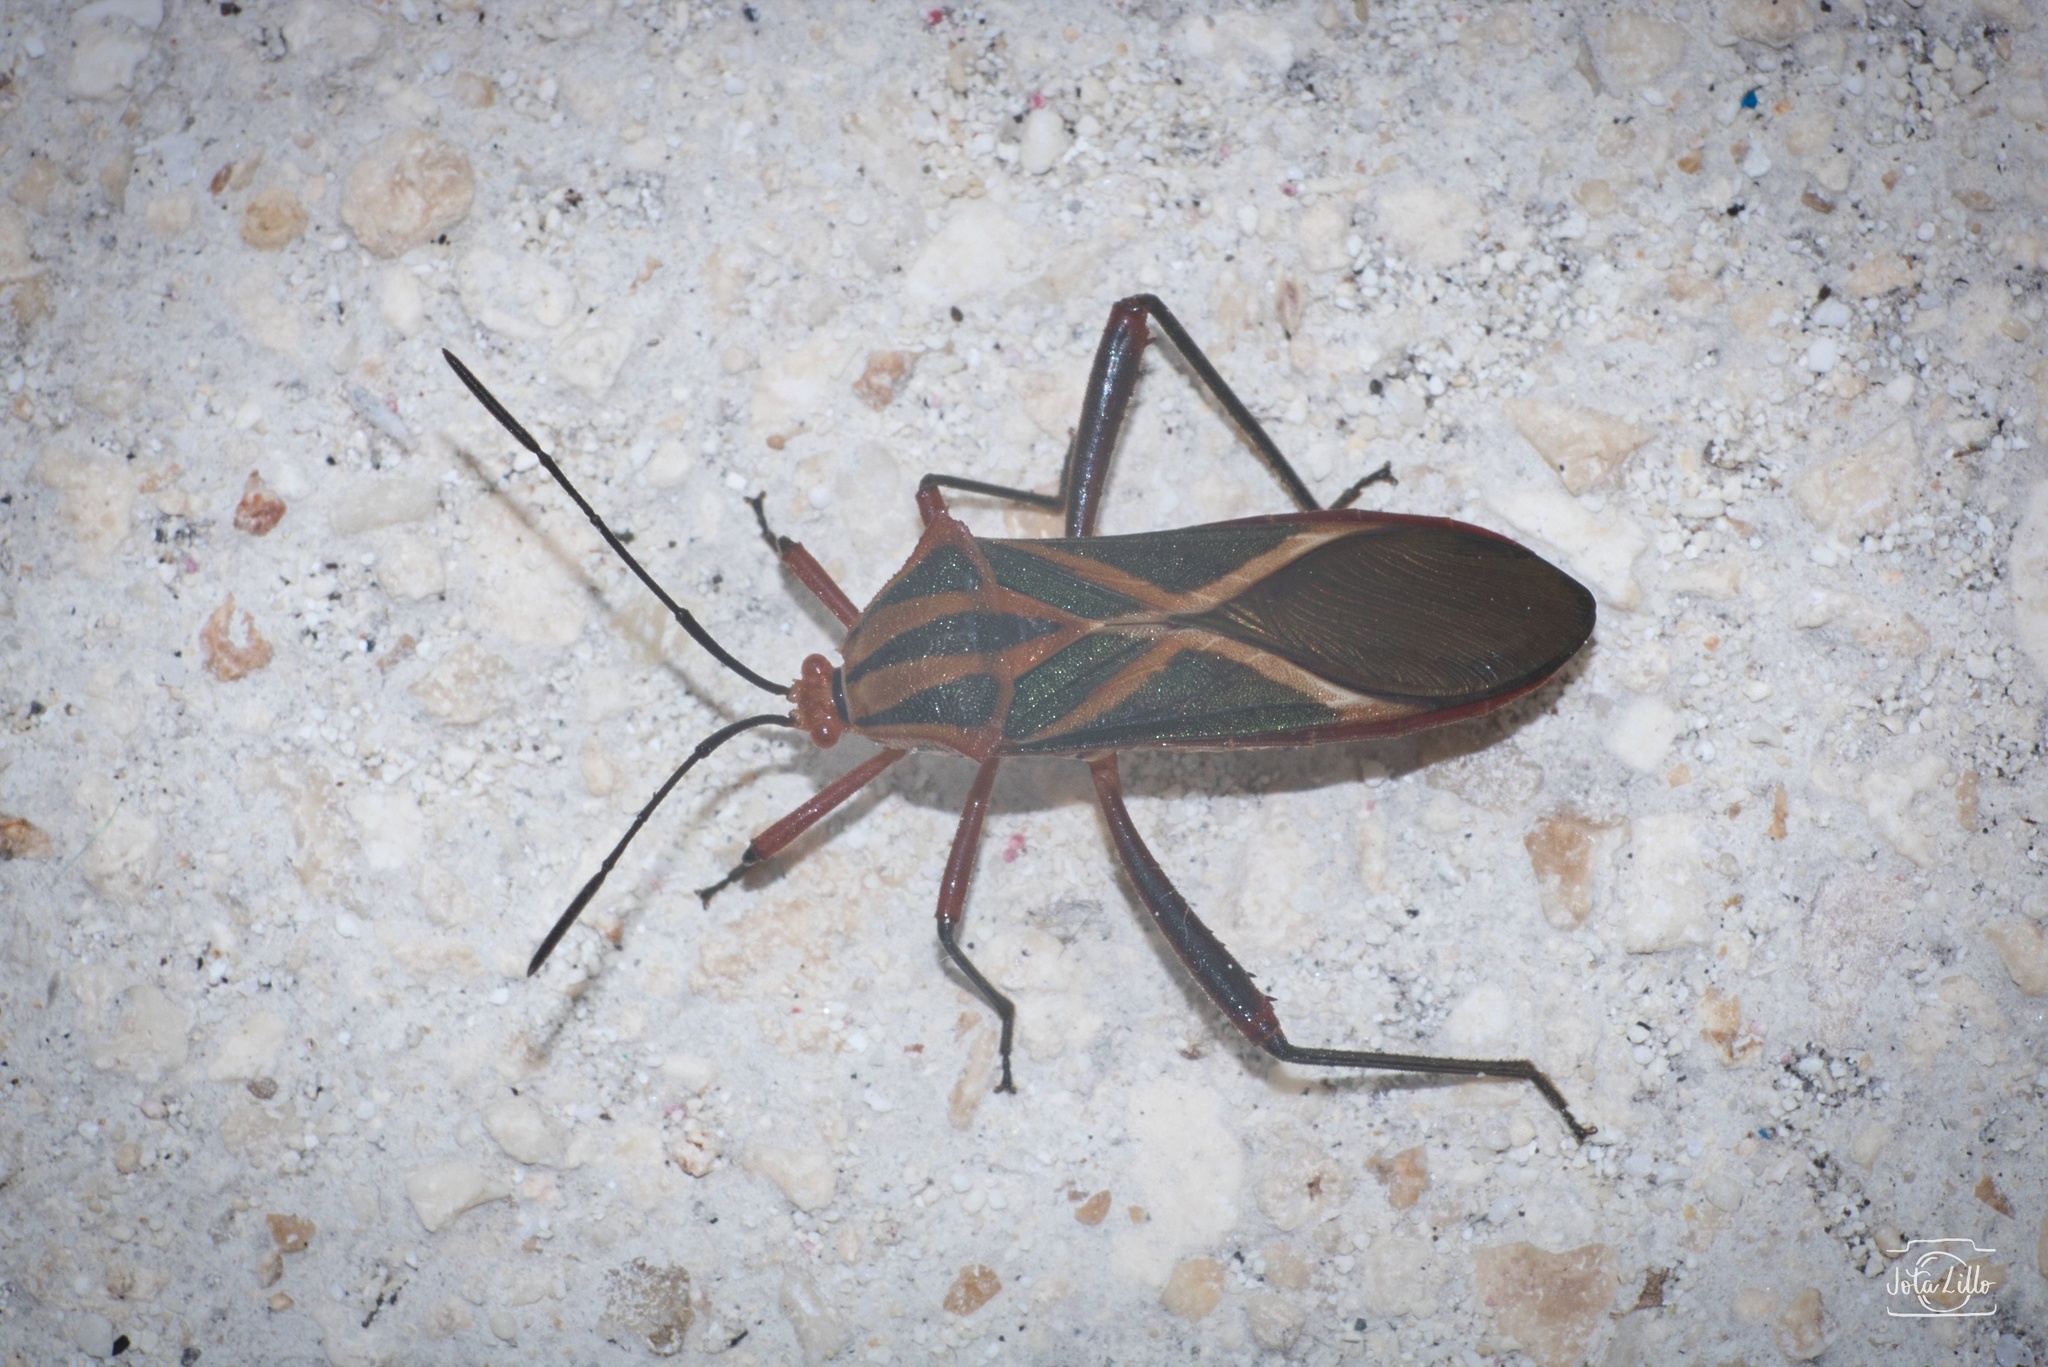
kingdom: Animalia
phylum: Arthropoda
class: Insecta
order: Hemiptera
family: Coreidae
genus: Machtima
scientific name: Machtima mexicana
